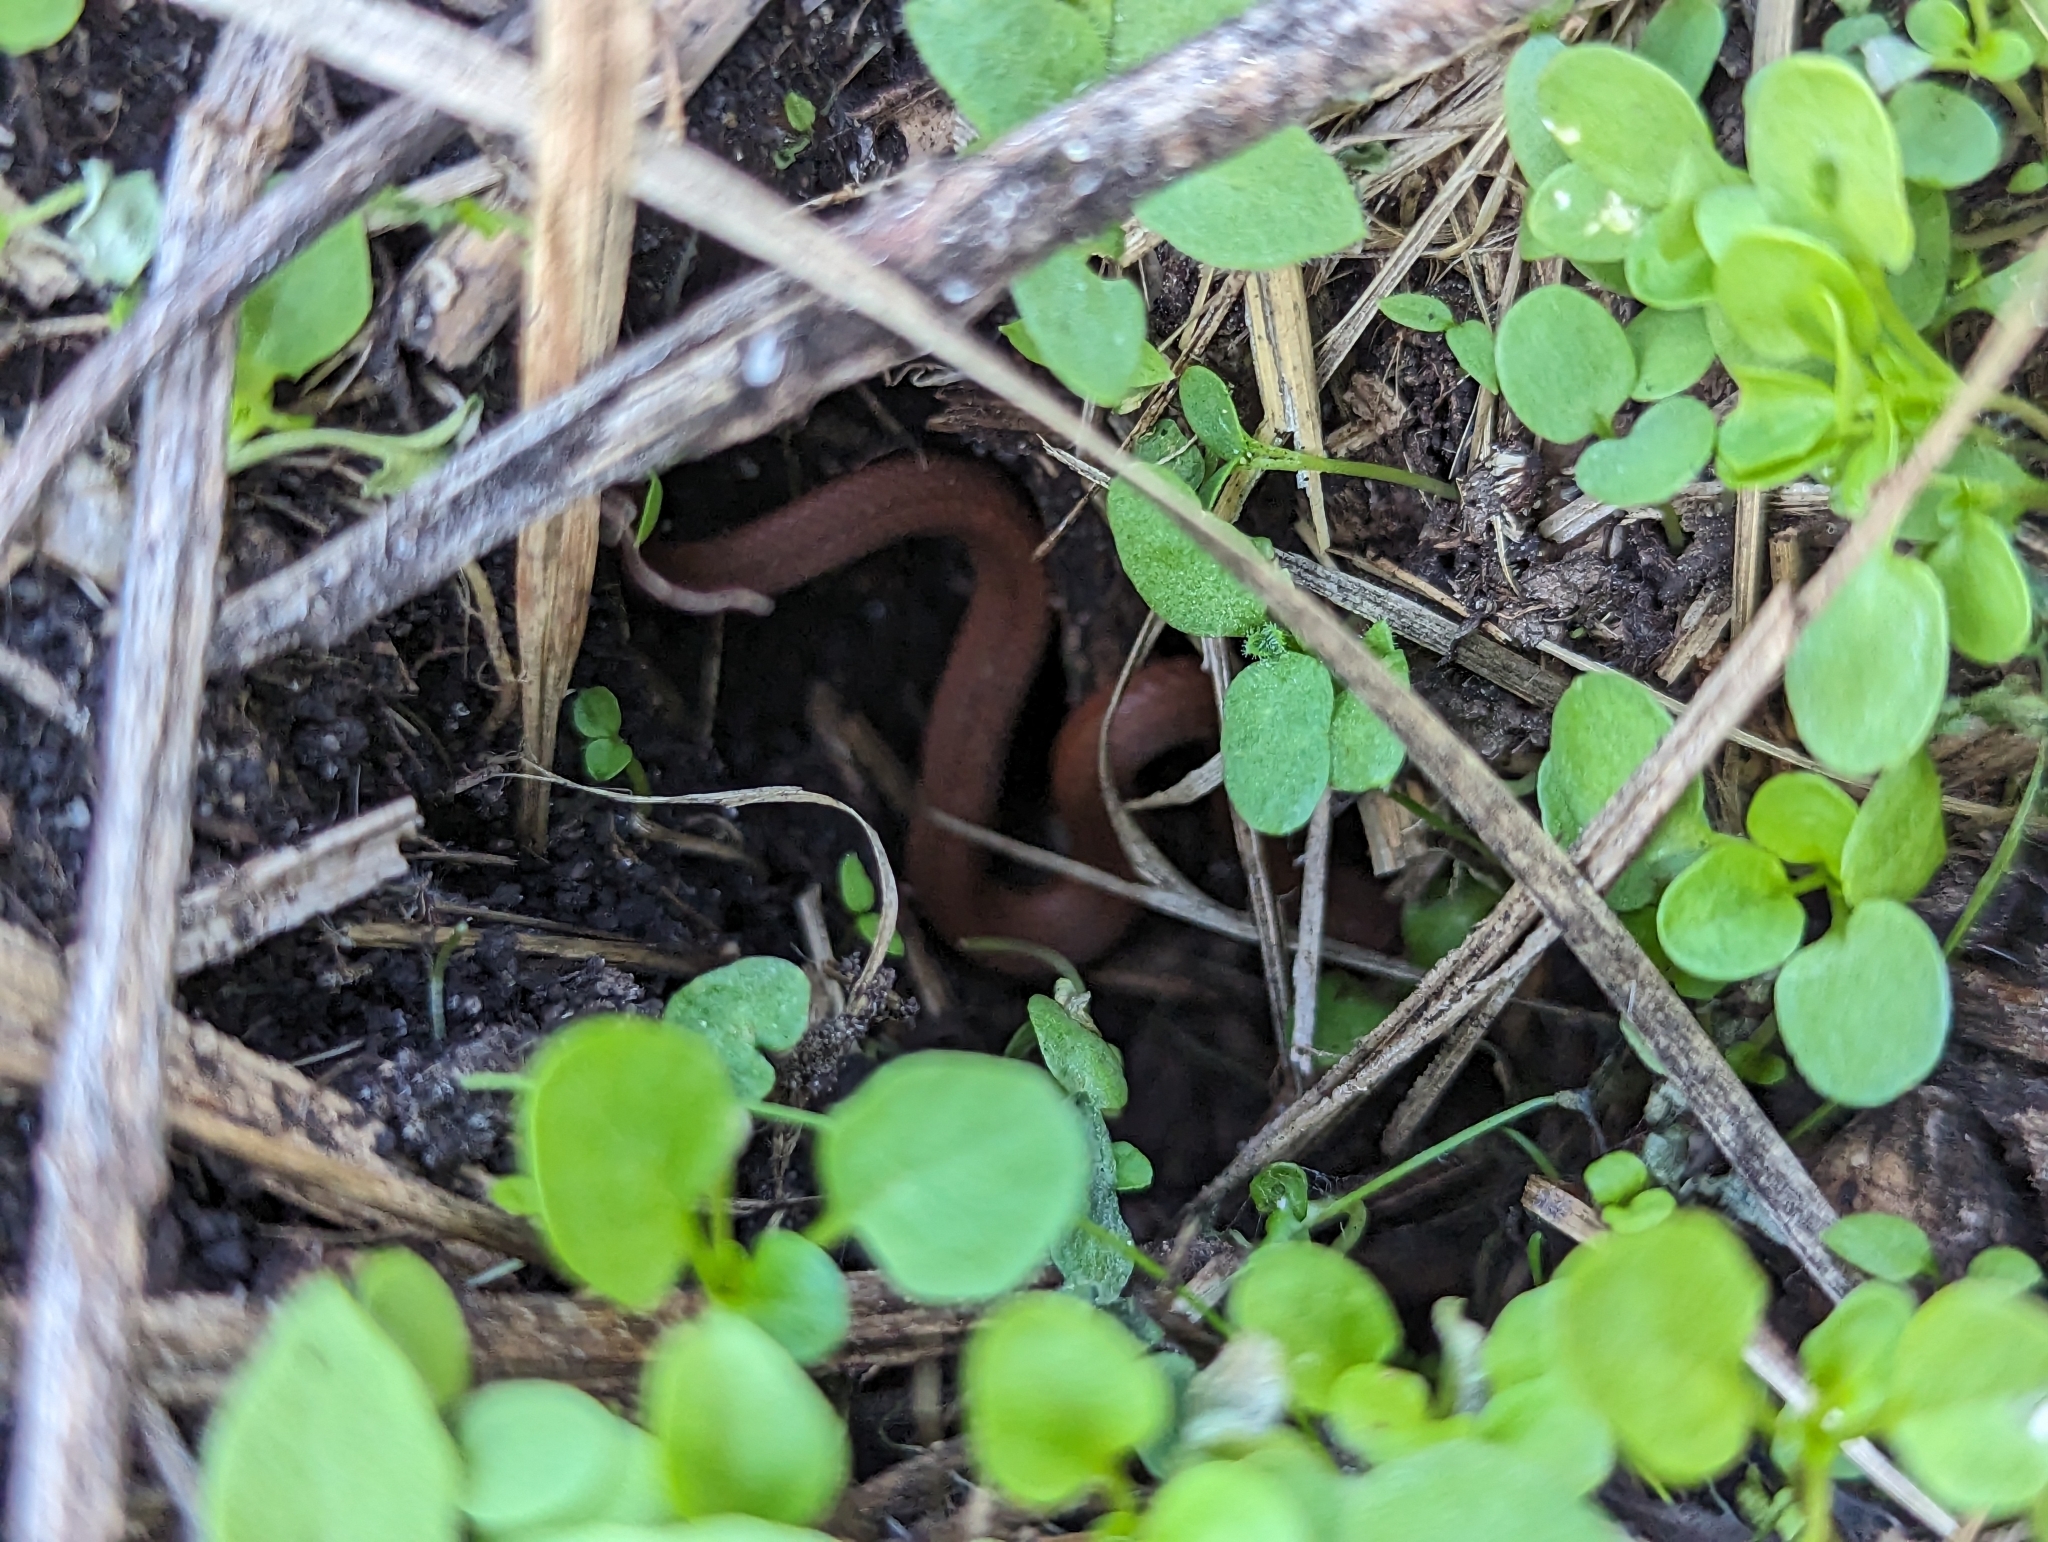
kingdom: Animalia
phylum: Chordata
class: Squamata
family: Colubridae
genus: Storeria
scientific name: Storeria occipitomaculata
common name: Redbelly snake
